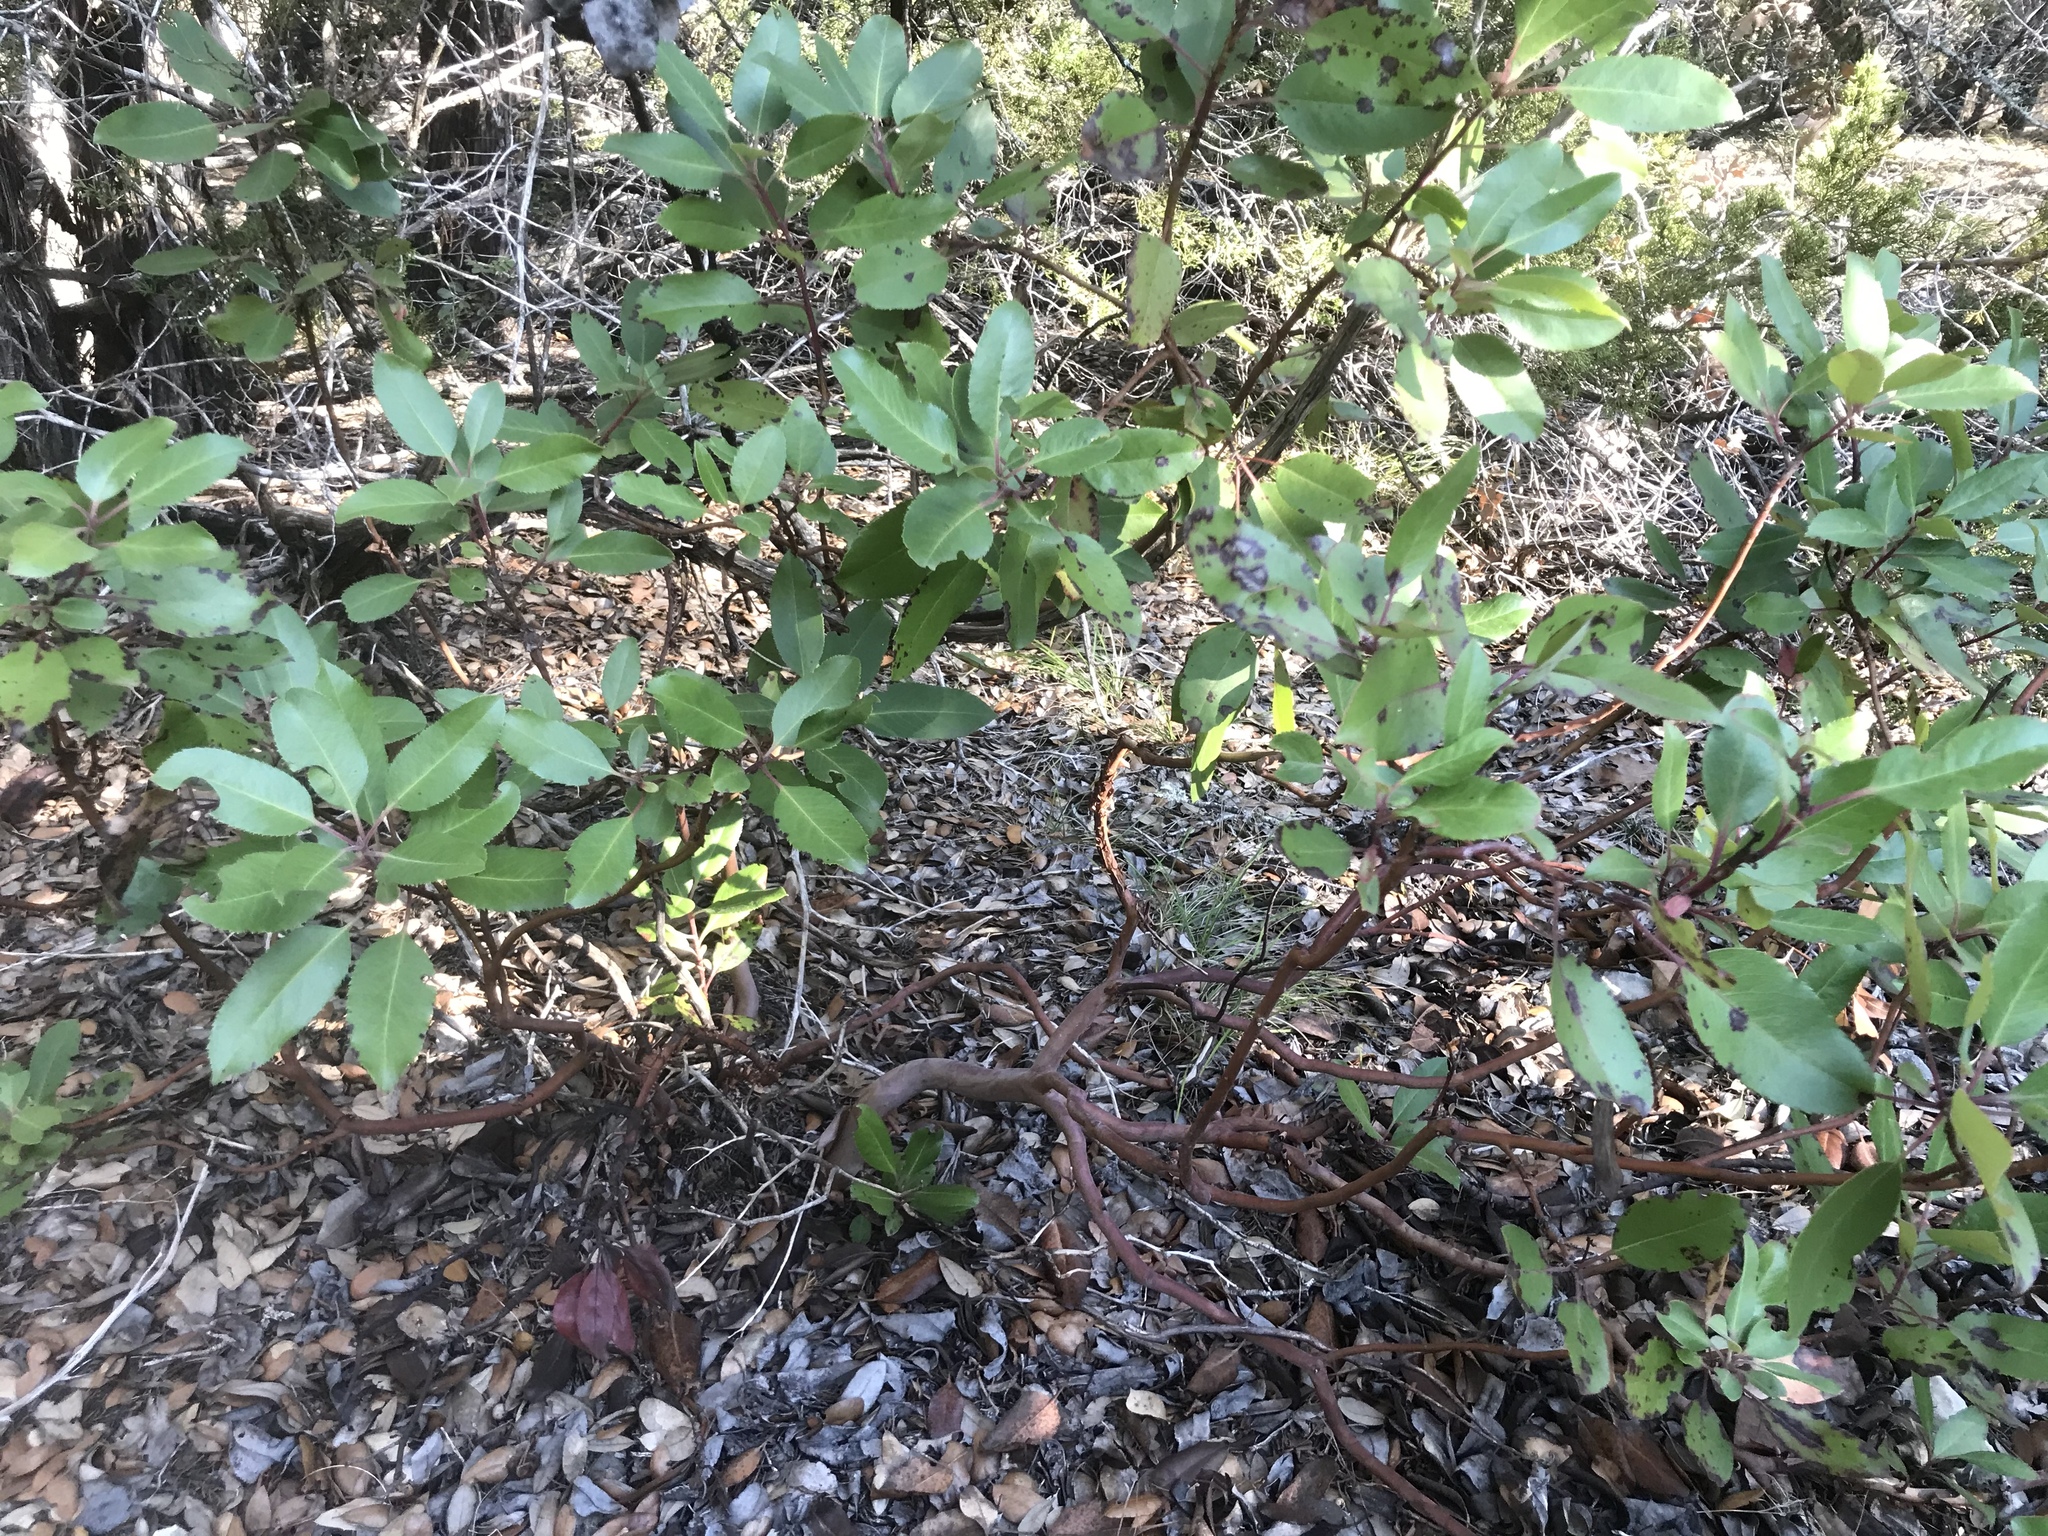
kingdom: Plantae
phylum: Tracheophyta
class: Magnoliopsida
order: Ericales
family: Ericaceae
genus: Arbutus
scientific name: Arbutus xalapensis
